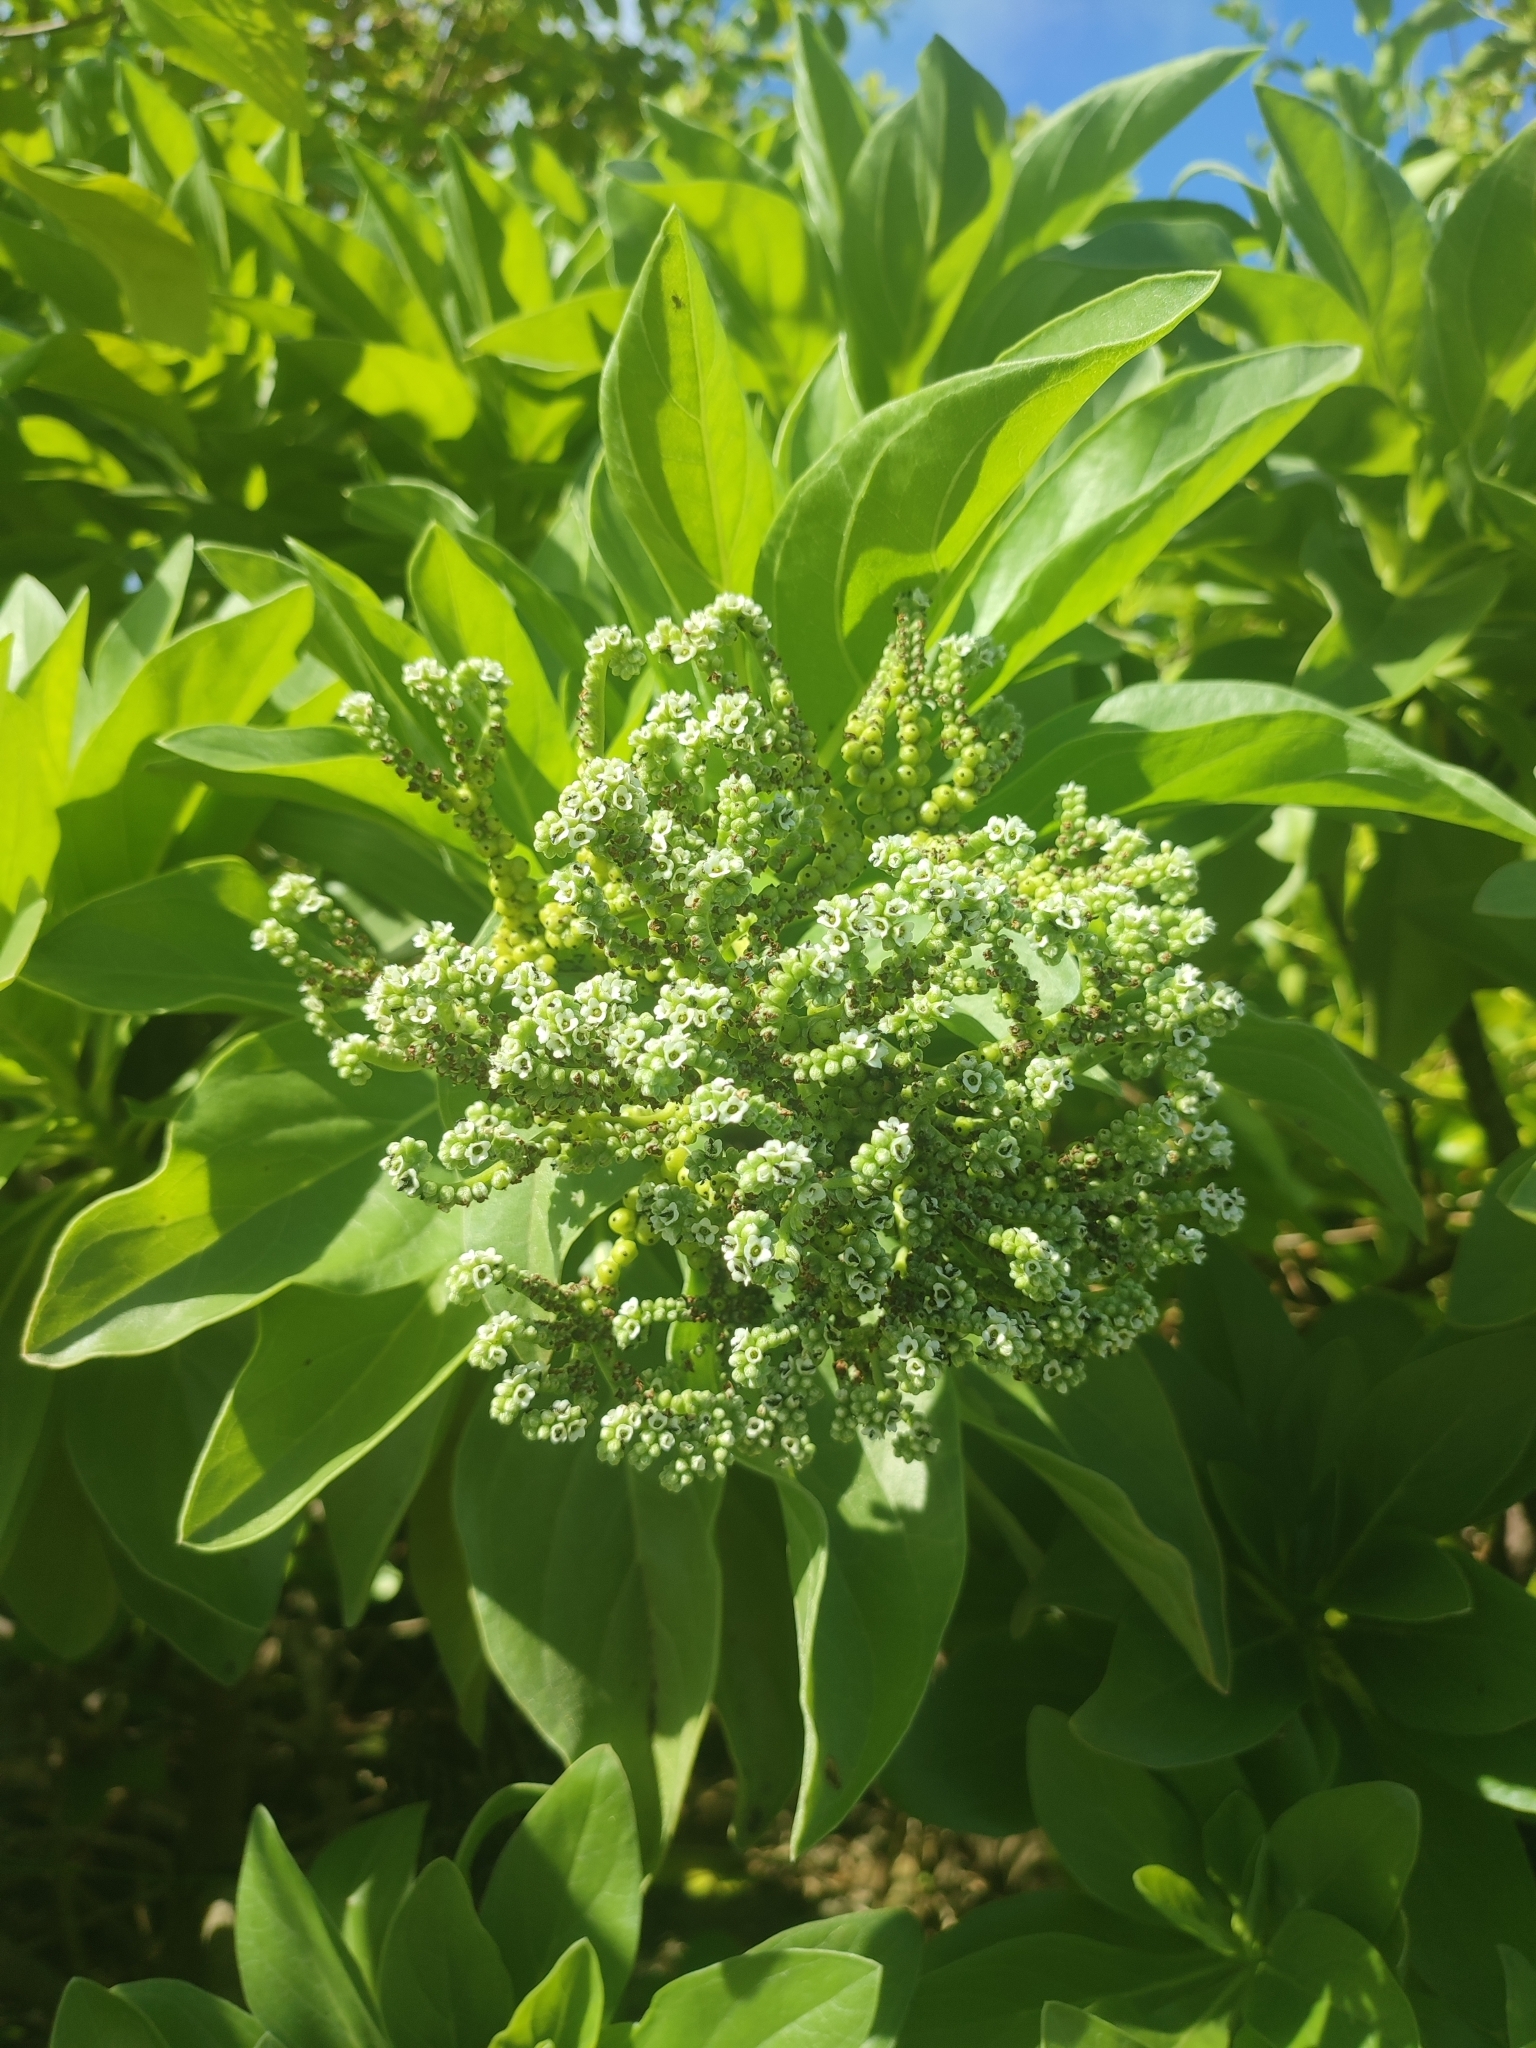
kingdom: Plantae
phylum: Tracheophyta
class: Magnoliopsida
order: Boraginales
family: Heliotropiaceae
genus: Heliotropium
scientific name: Heliotropium velutinum
